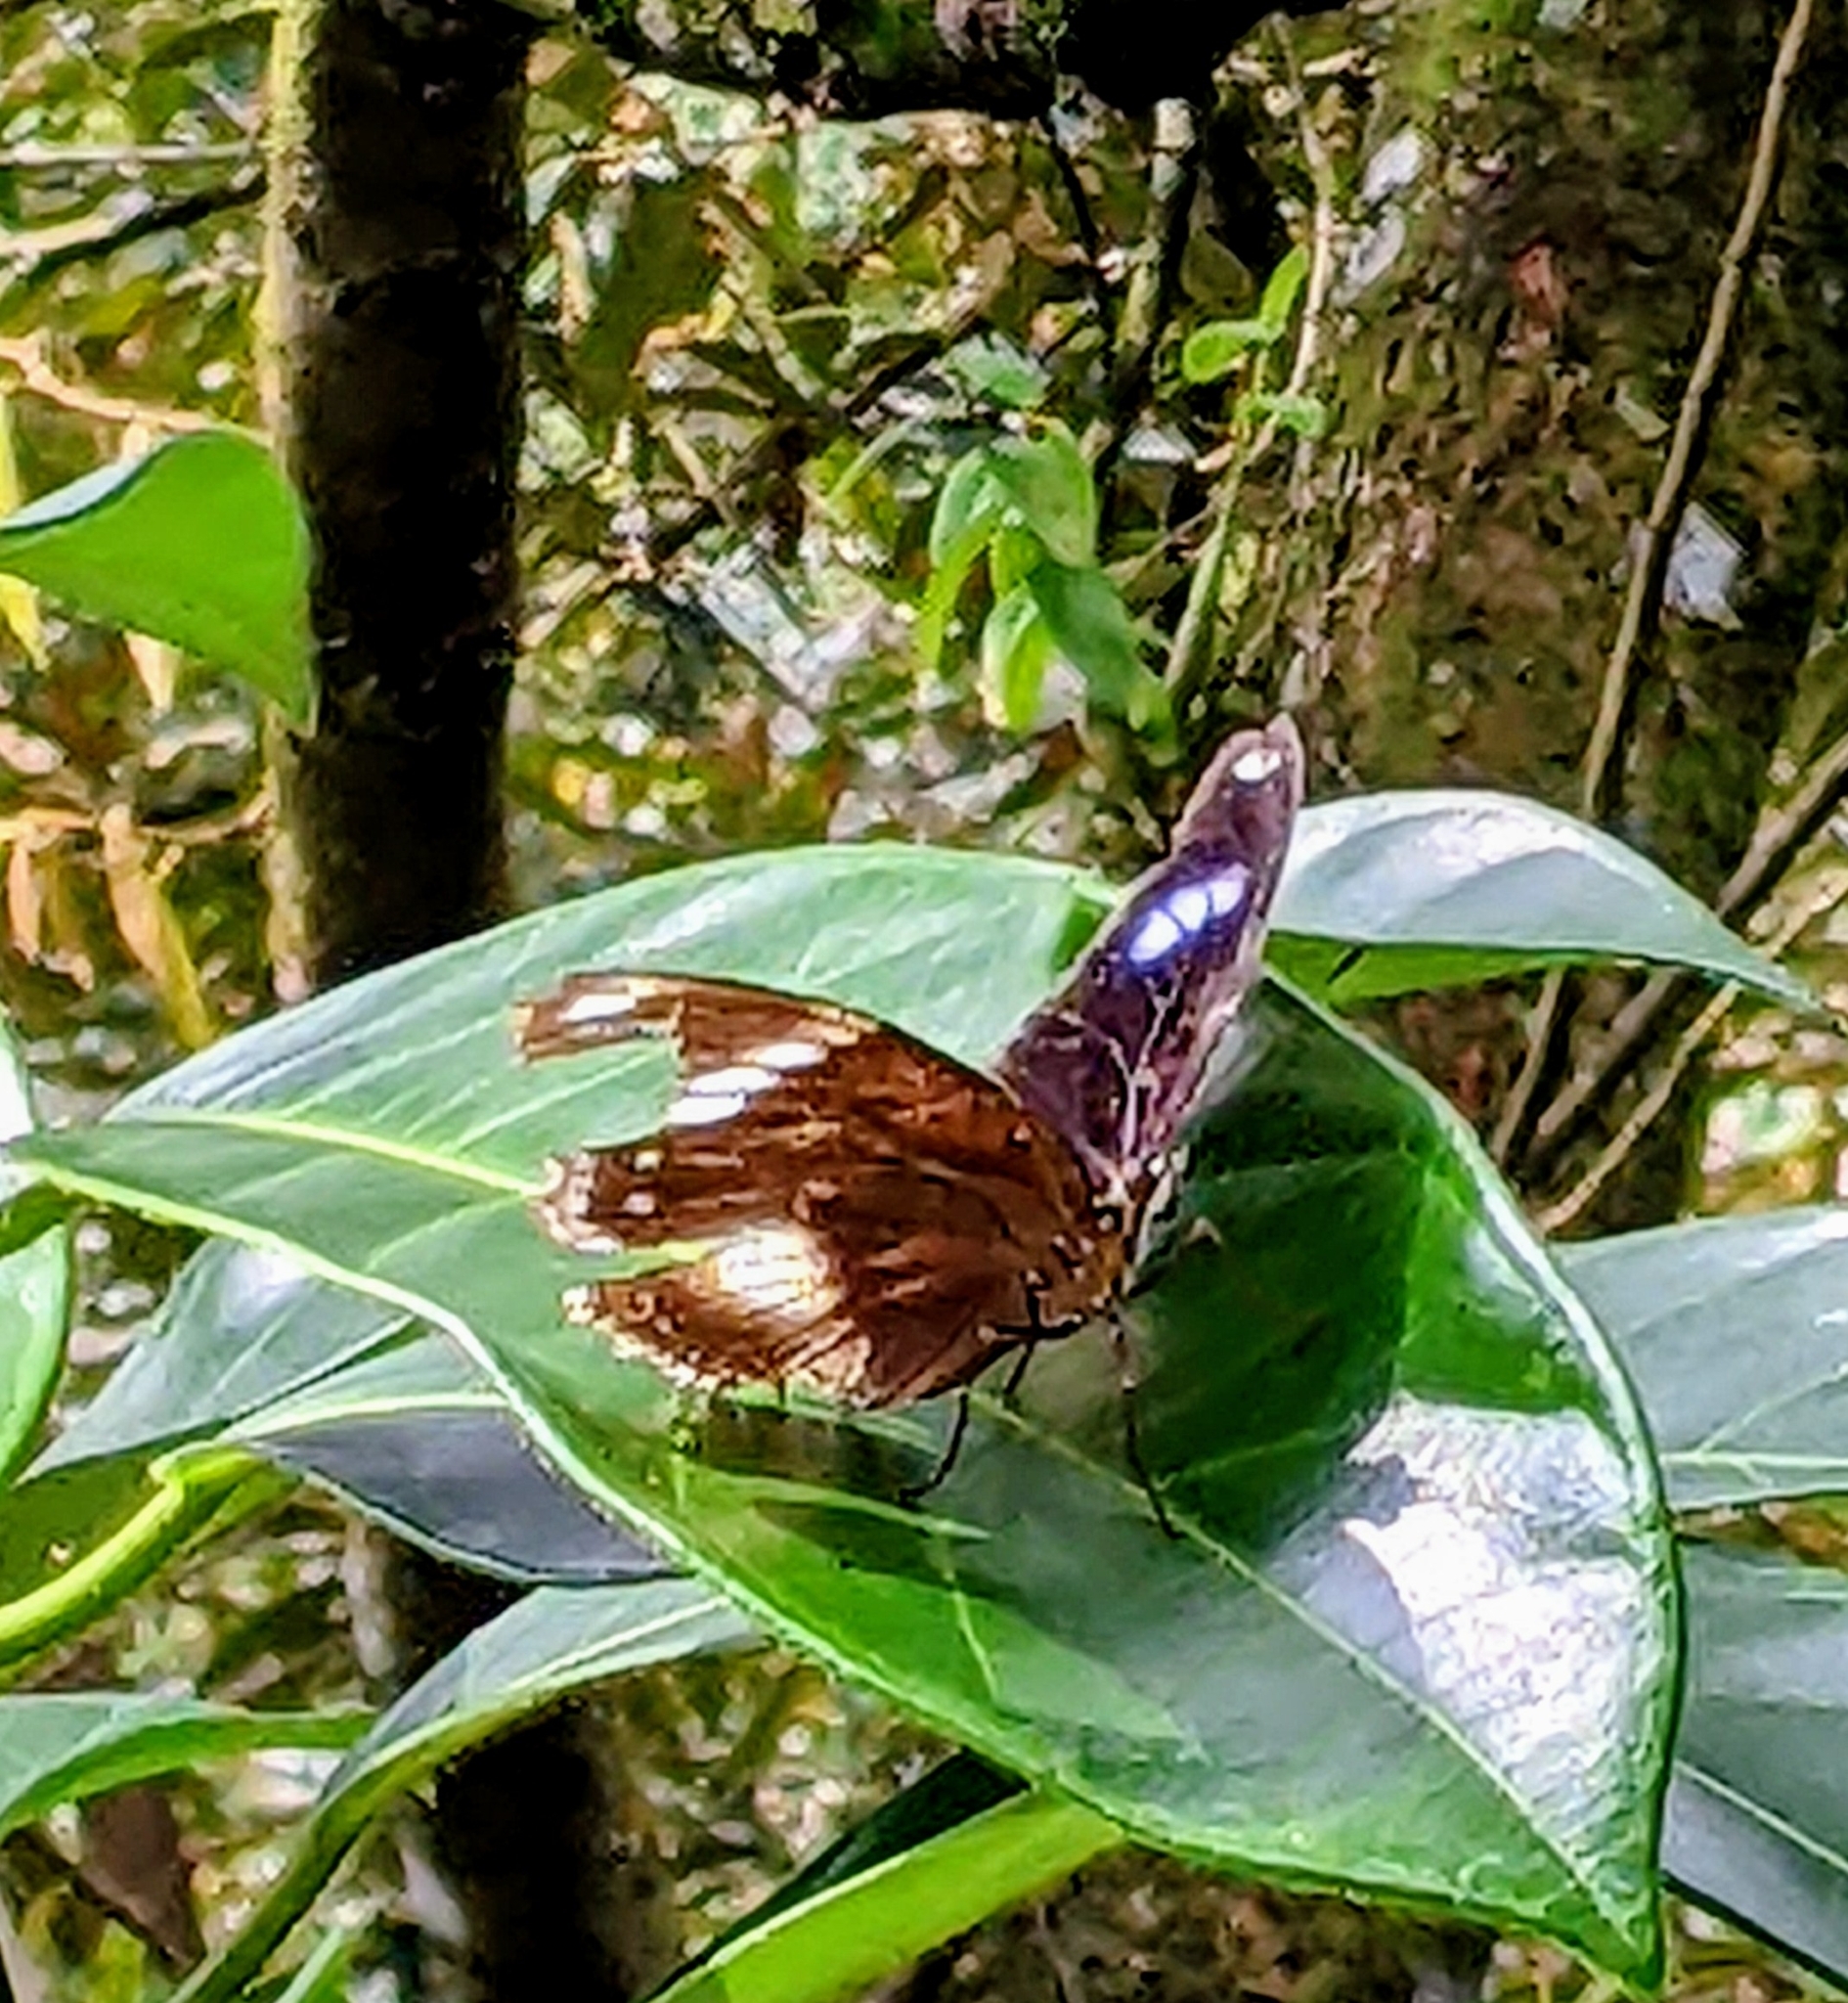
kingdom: Animalia
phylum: Arthropoda
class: Insecta
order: Lepidoptera
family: Nymphalidae
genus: Hypolimnas
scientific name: Hypolimnas bolina
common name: Great eggfly
